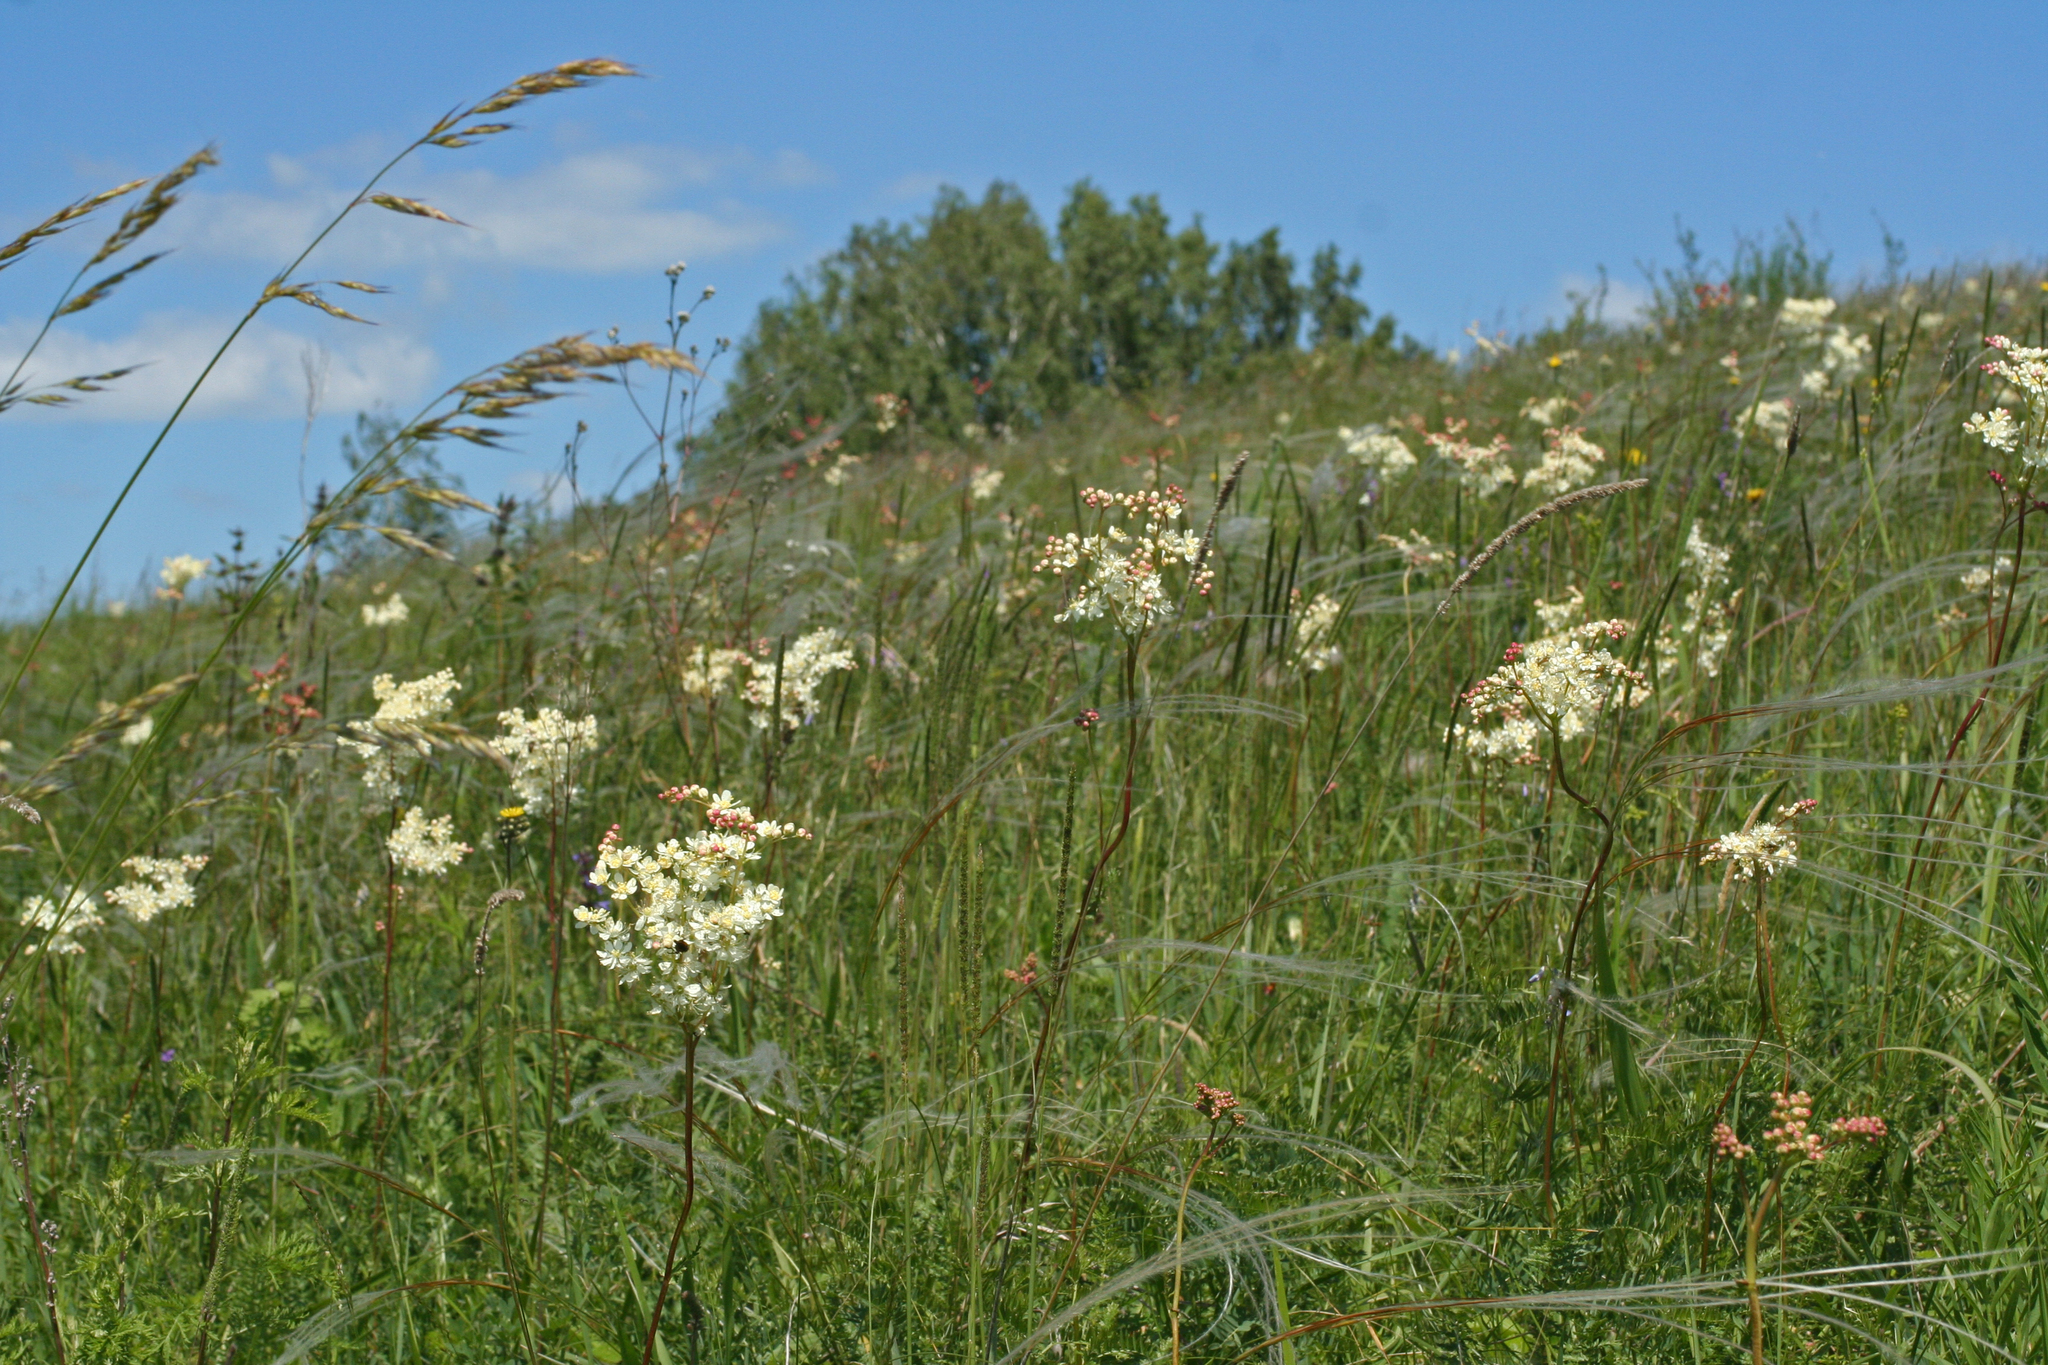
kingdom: Plantae
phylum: Tracheophyta
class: Magnoliopsida
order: Rosales
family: Rosaceae
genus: Filipendula
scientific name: Filipendula vulgaris
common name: Dropwort
